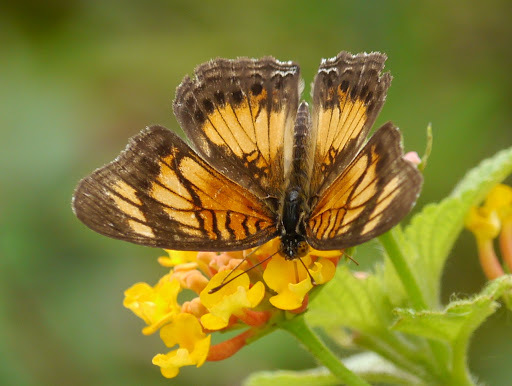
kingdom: Animalia
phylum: Arthropoda
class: Insecta
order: Lepidoptera
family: Nymphalidae
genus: Junonia
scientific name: Junonia sophia
